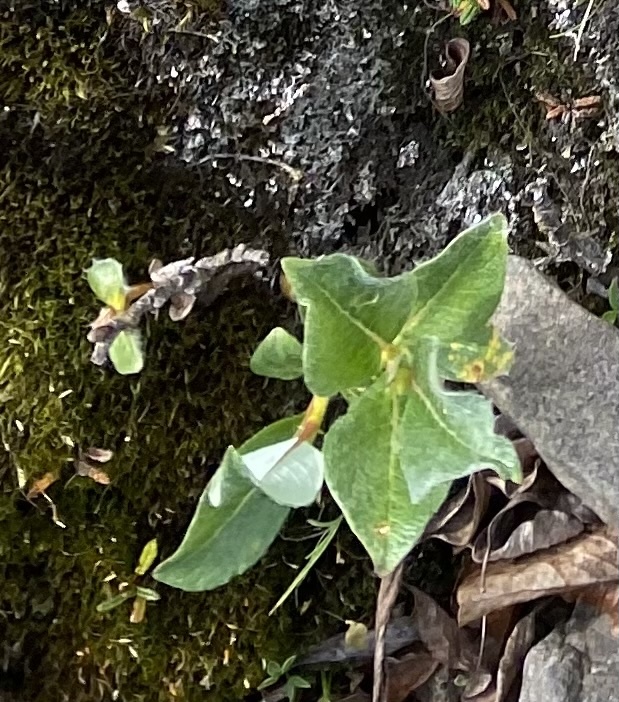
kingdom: Plantae
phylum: Tracheophyta
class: Magnoliopsida
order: Malpighiales
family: Salicaceae
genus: Salix
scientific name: Salix lanata
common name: Woolly willow
